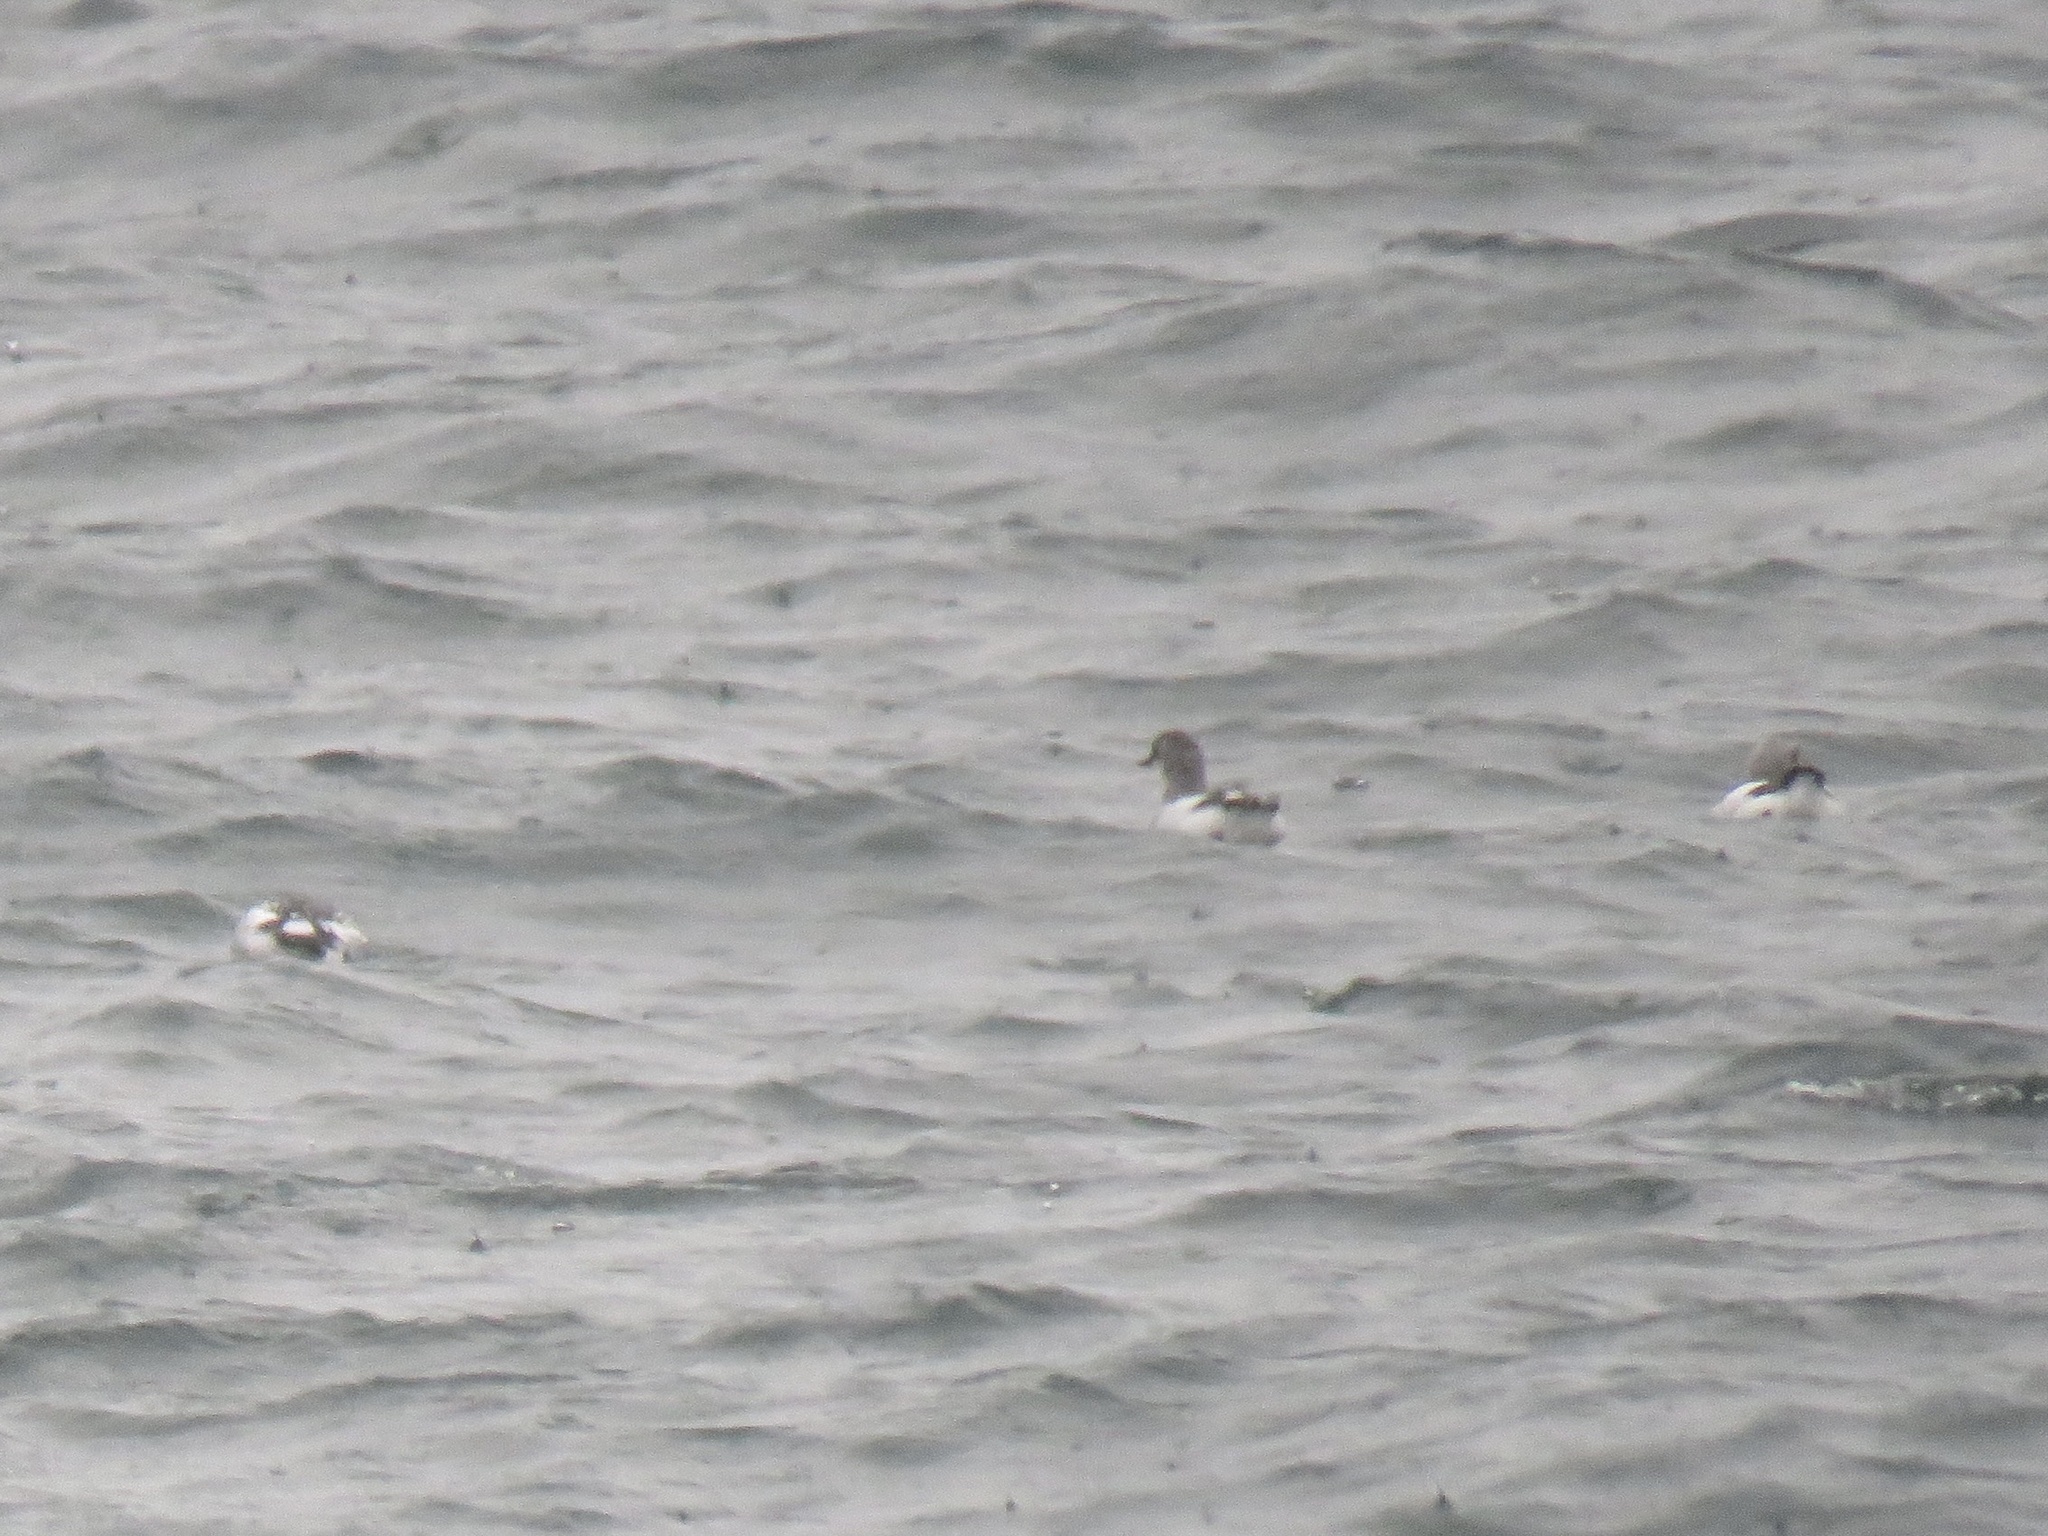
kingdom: Animalia
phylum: Chordata
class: Aves
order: Charadriiformes
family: Alcidae
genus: Cepphus
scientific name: Cepphus columba
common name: Pigeon guillemot
